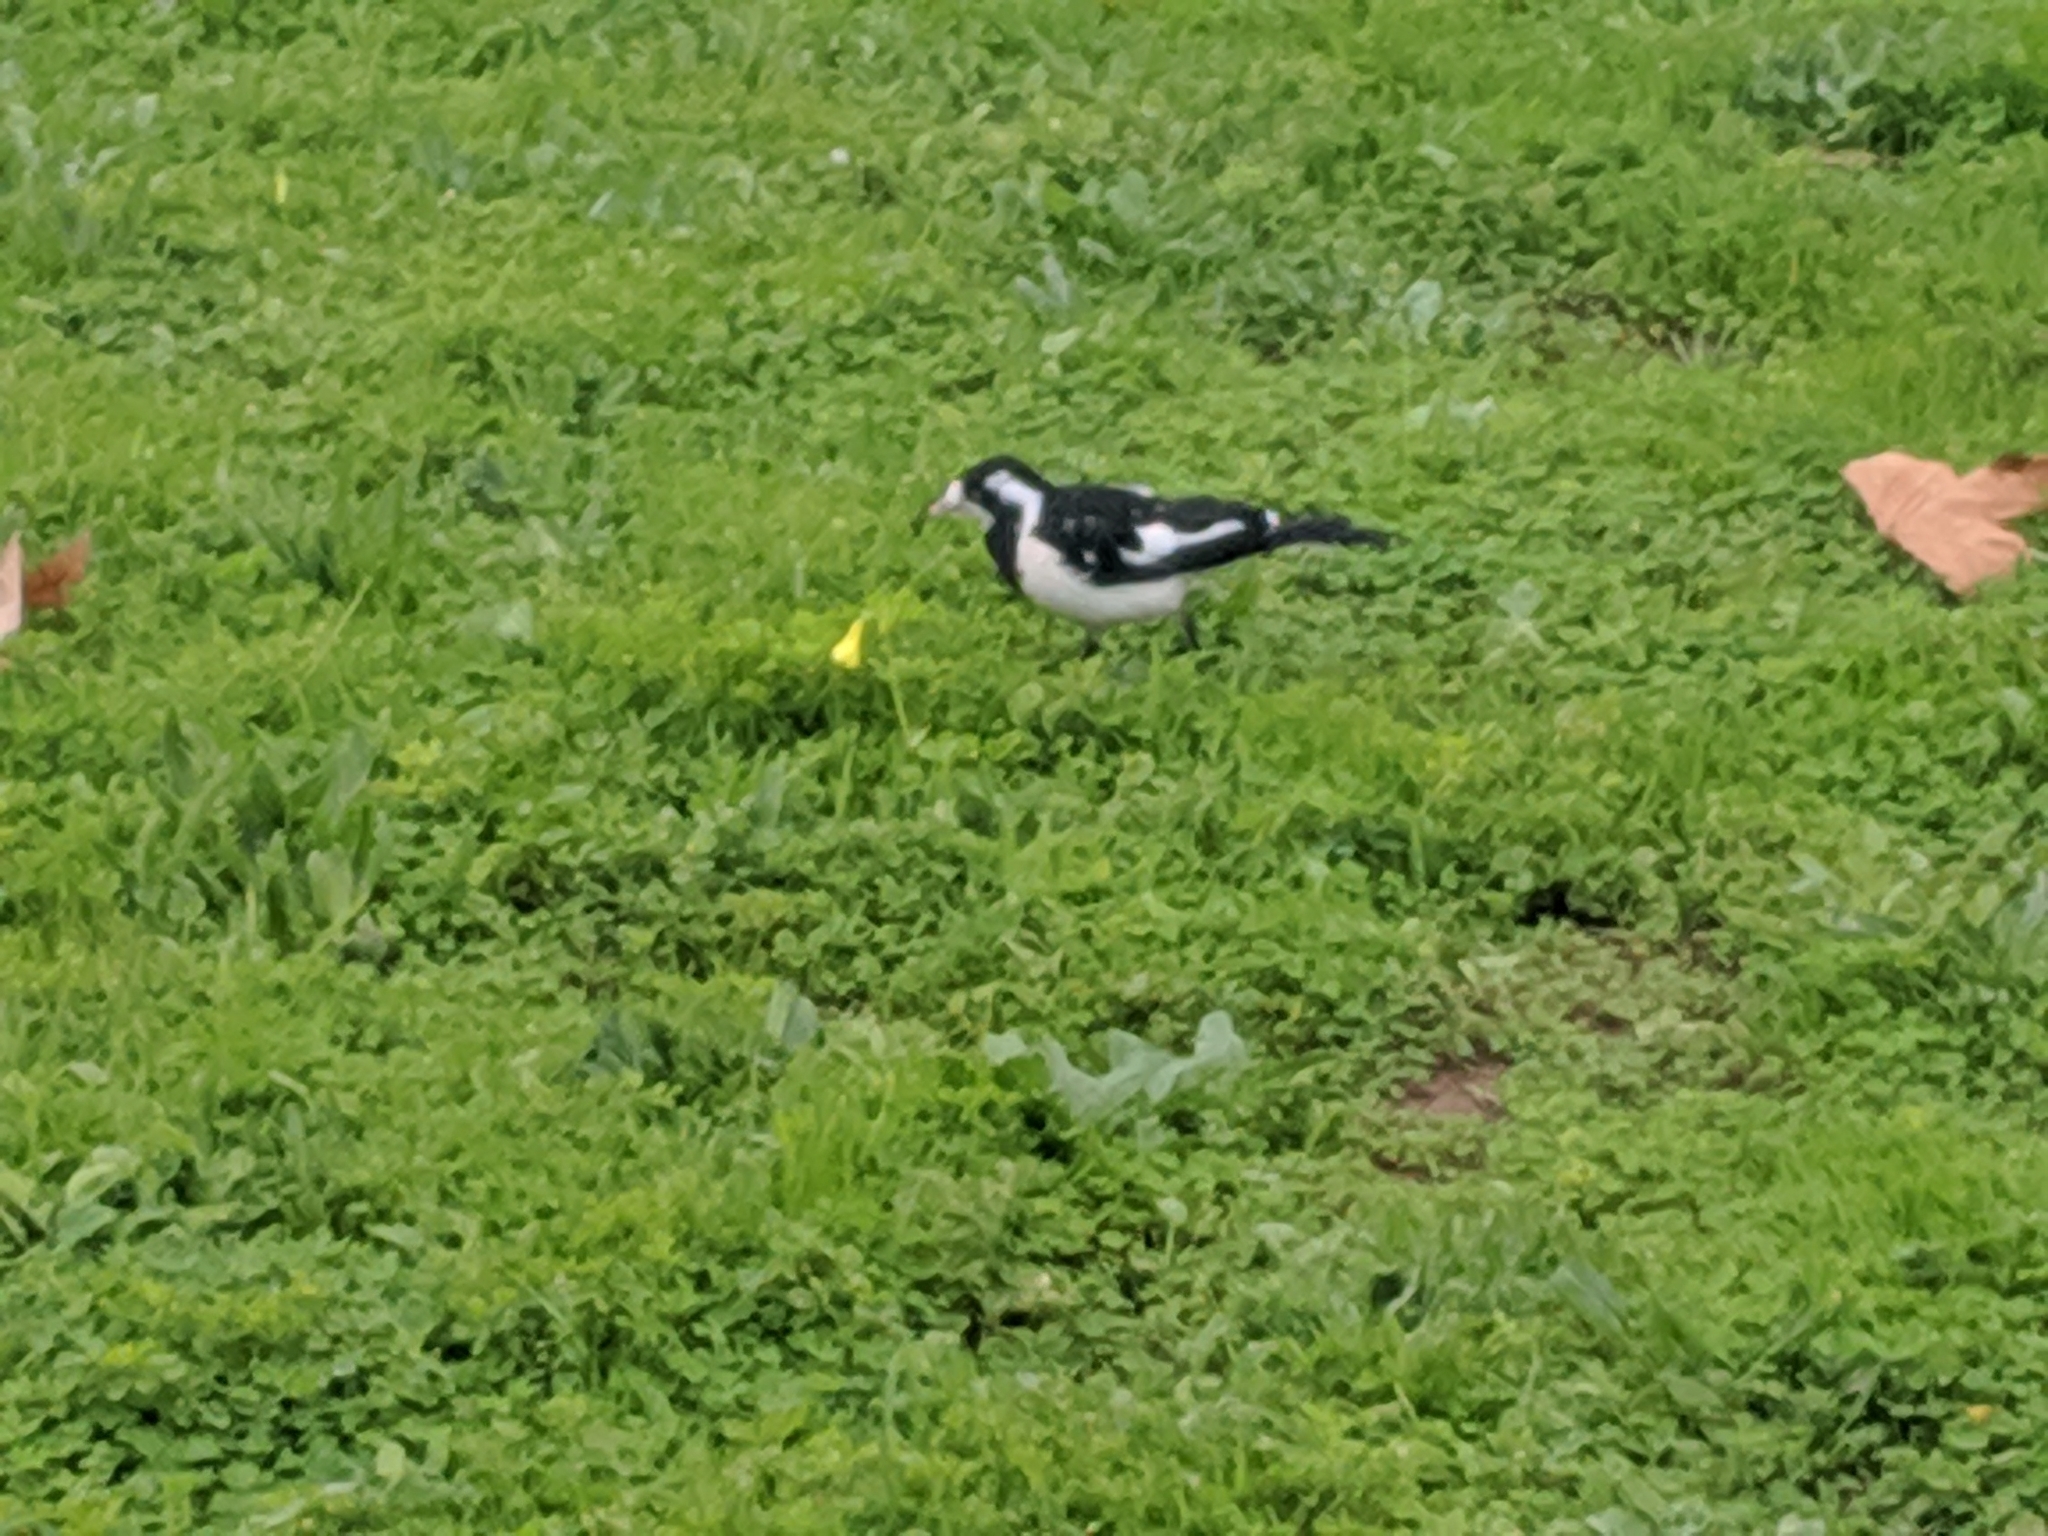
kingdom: Animalia
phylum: Chordata
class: Aves
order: Passeriformes
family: Monarchidae
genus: Grallina
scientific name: Grallina cyanoleuca
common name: Magpie-lark
